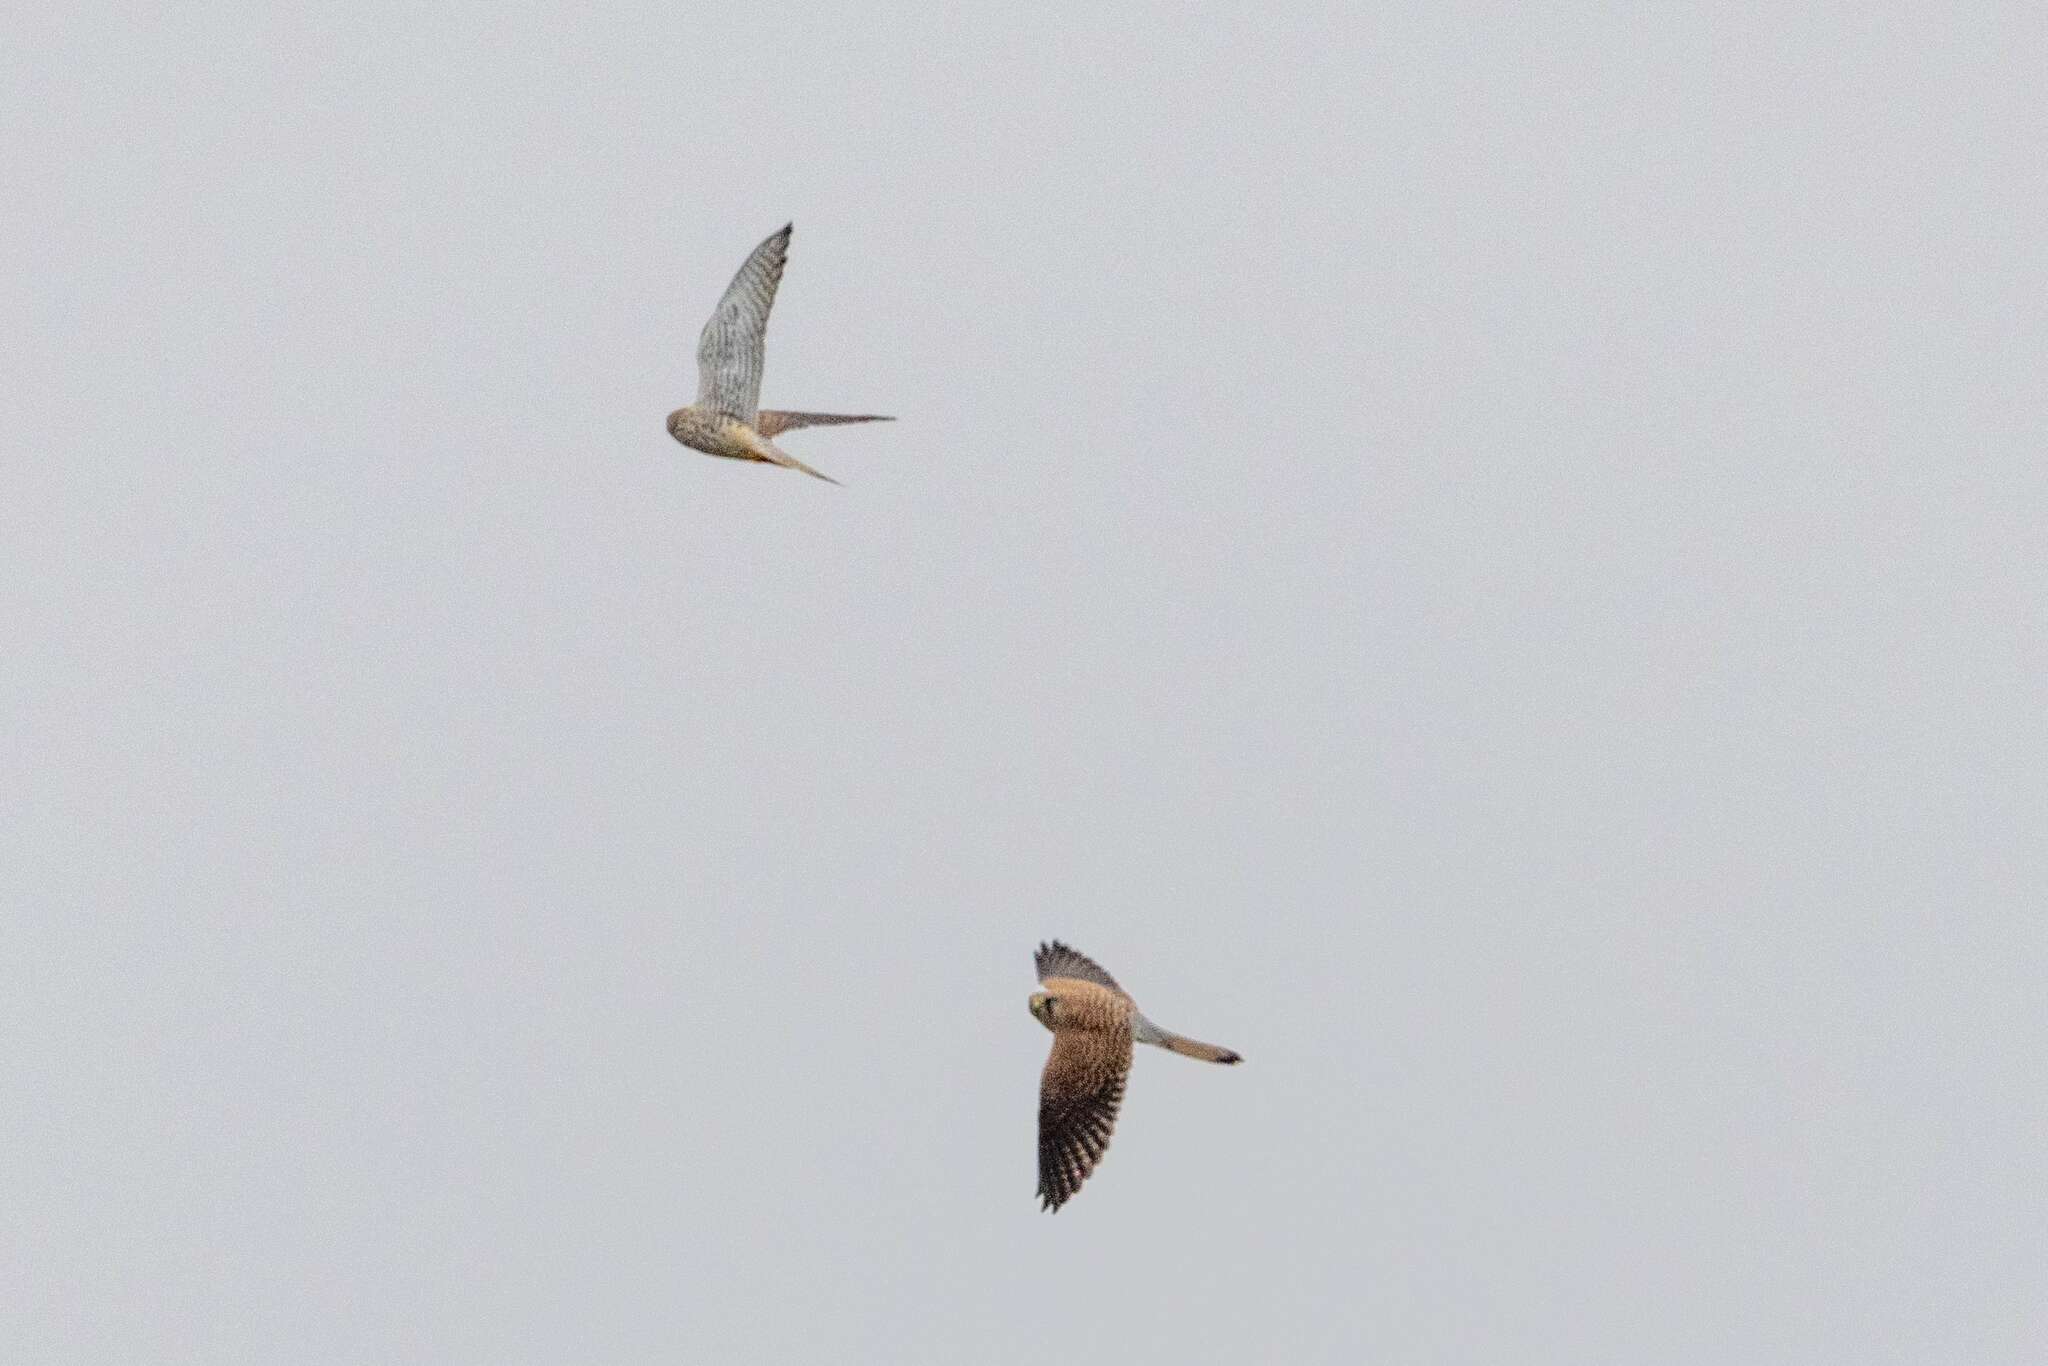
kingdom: Animalia
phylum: Chordata
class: Aves
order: Falconiformes
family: Falconidae
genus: Falco
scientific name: Falco tinnunculus
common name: Common kestrel
